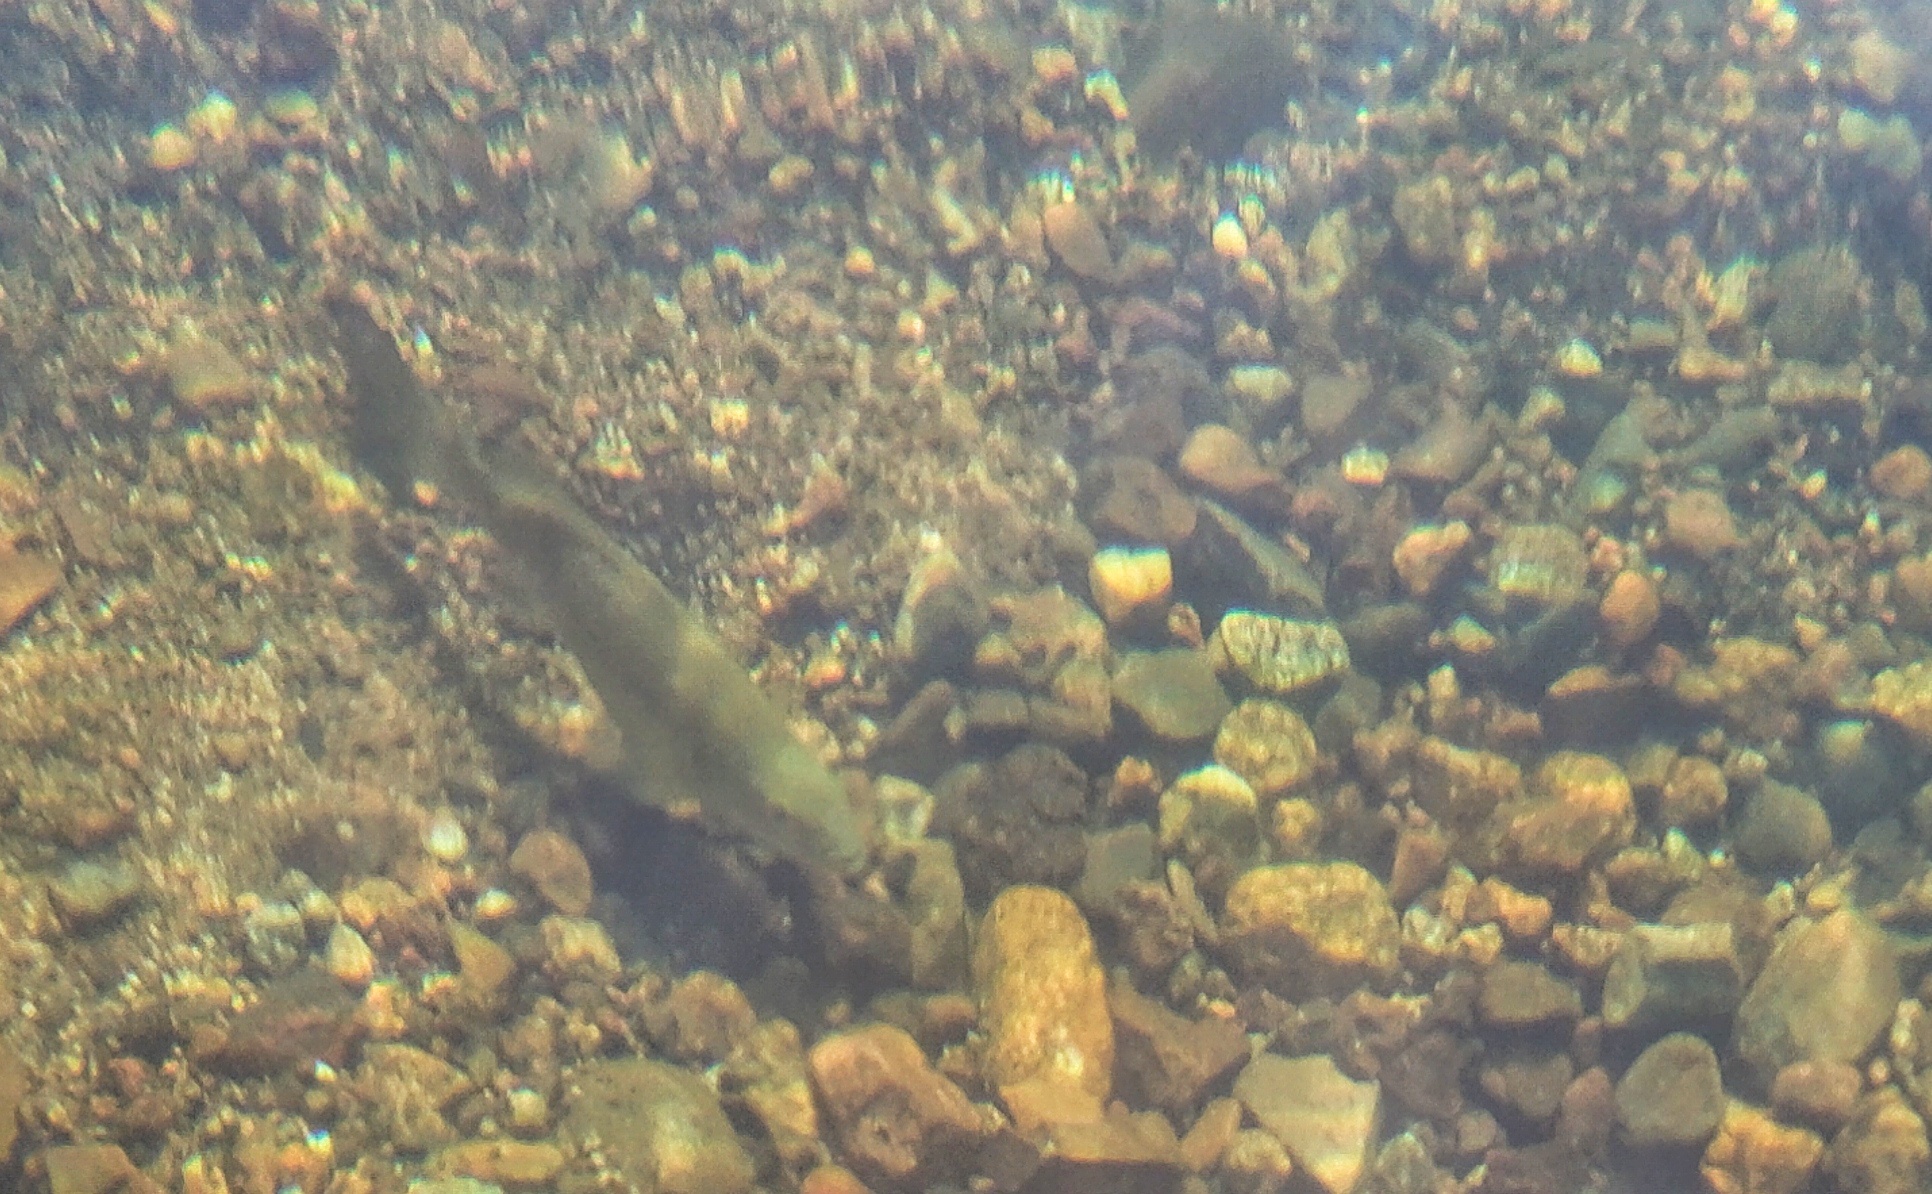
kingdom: Animalia
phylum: Chordata
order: Perciformes
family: Centrarchidae
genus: Micropterus
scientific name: Micropterus dolomieu
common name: Smallmouth bass
